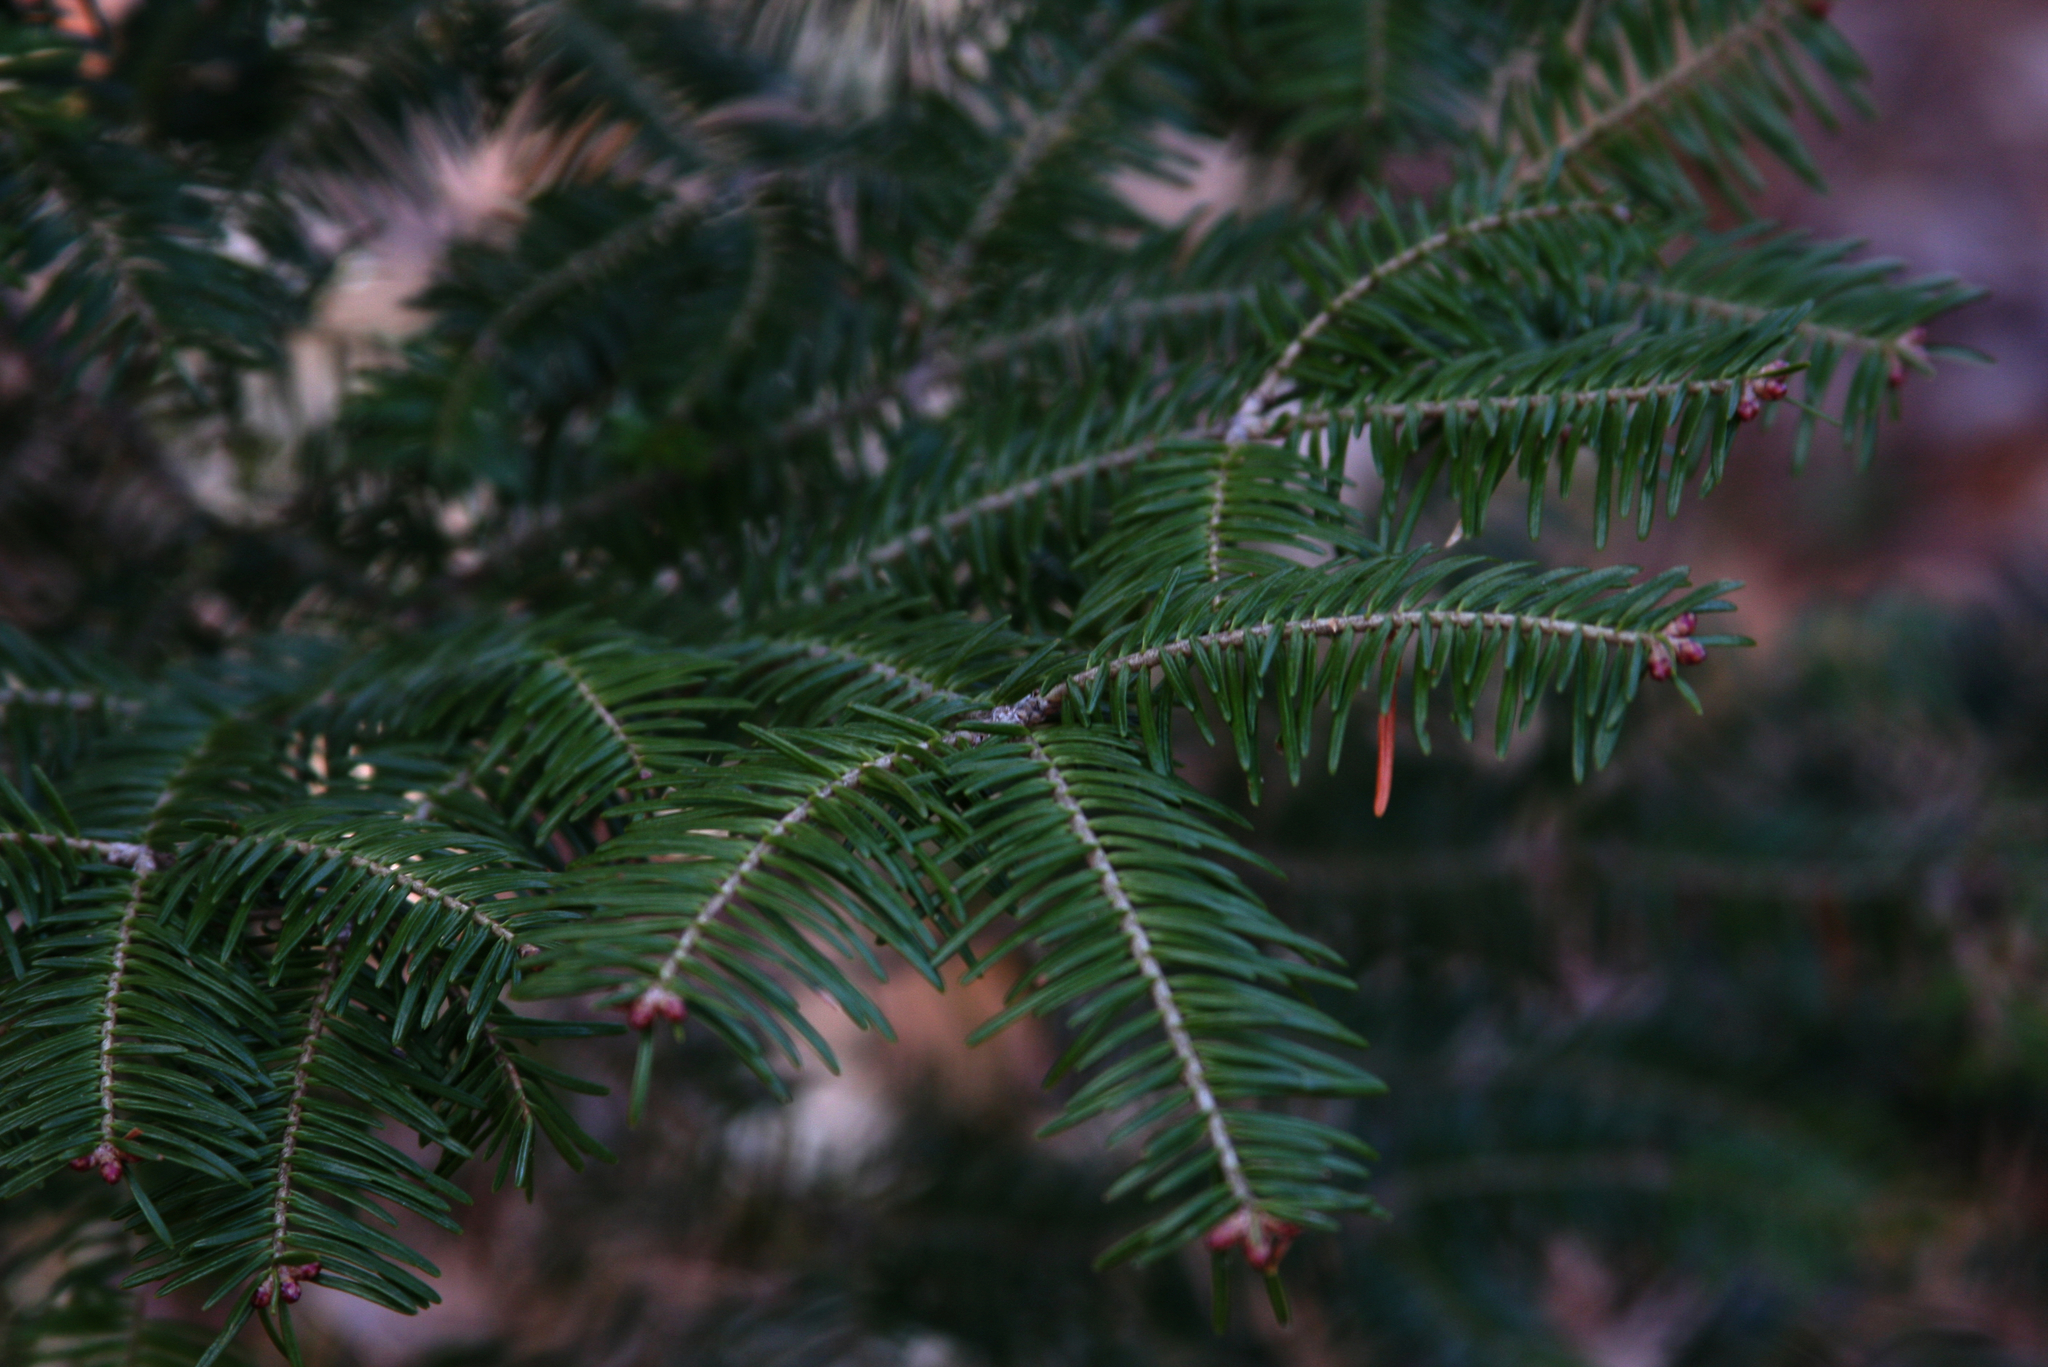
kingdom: Plantae
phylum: Tracheophyta
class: Pinopsida
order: Pinales
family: Pinaceae
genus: Abies
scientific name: Abies balsamea
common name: Balsam fir
